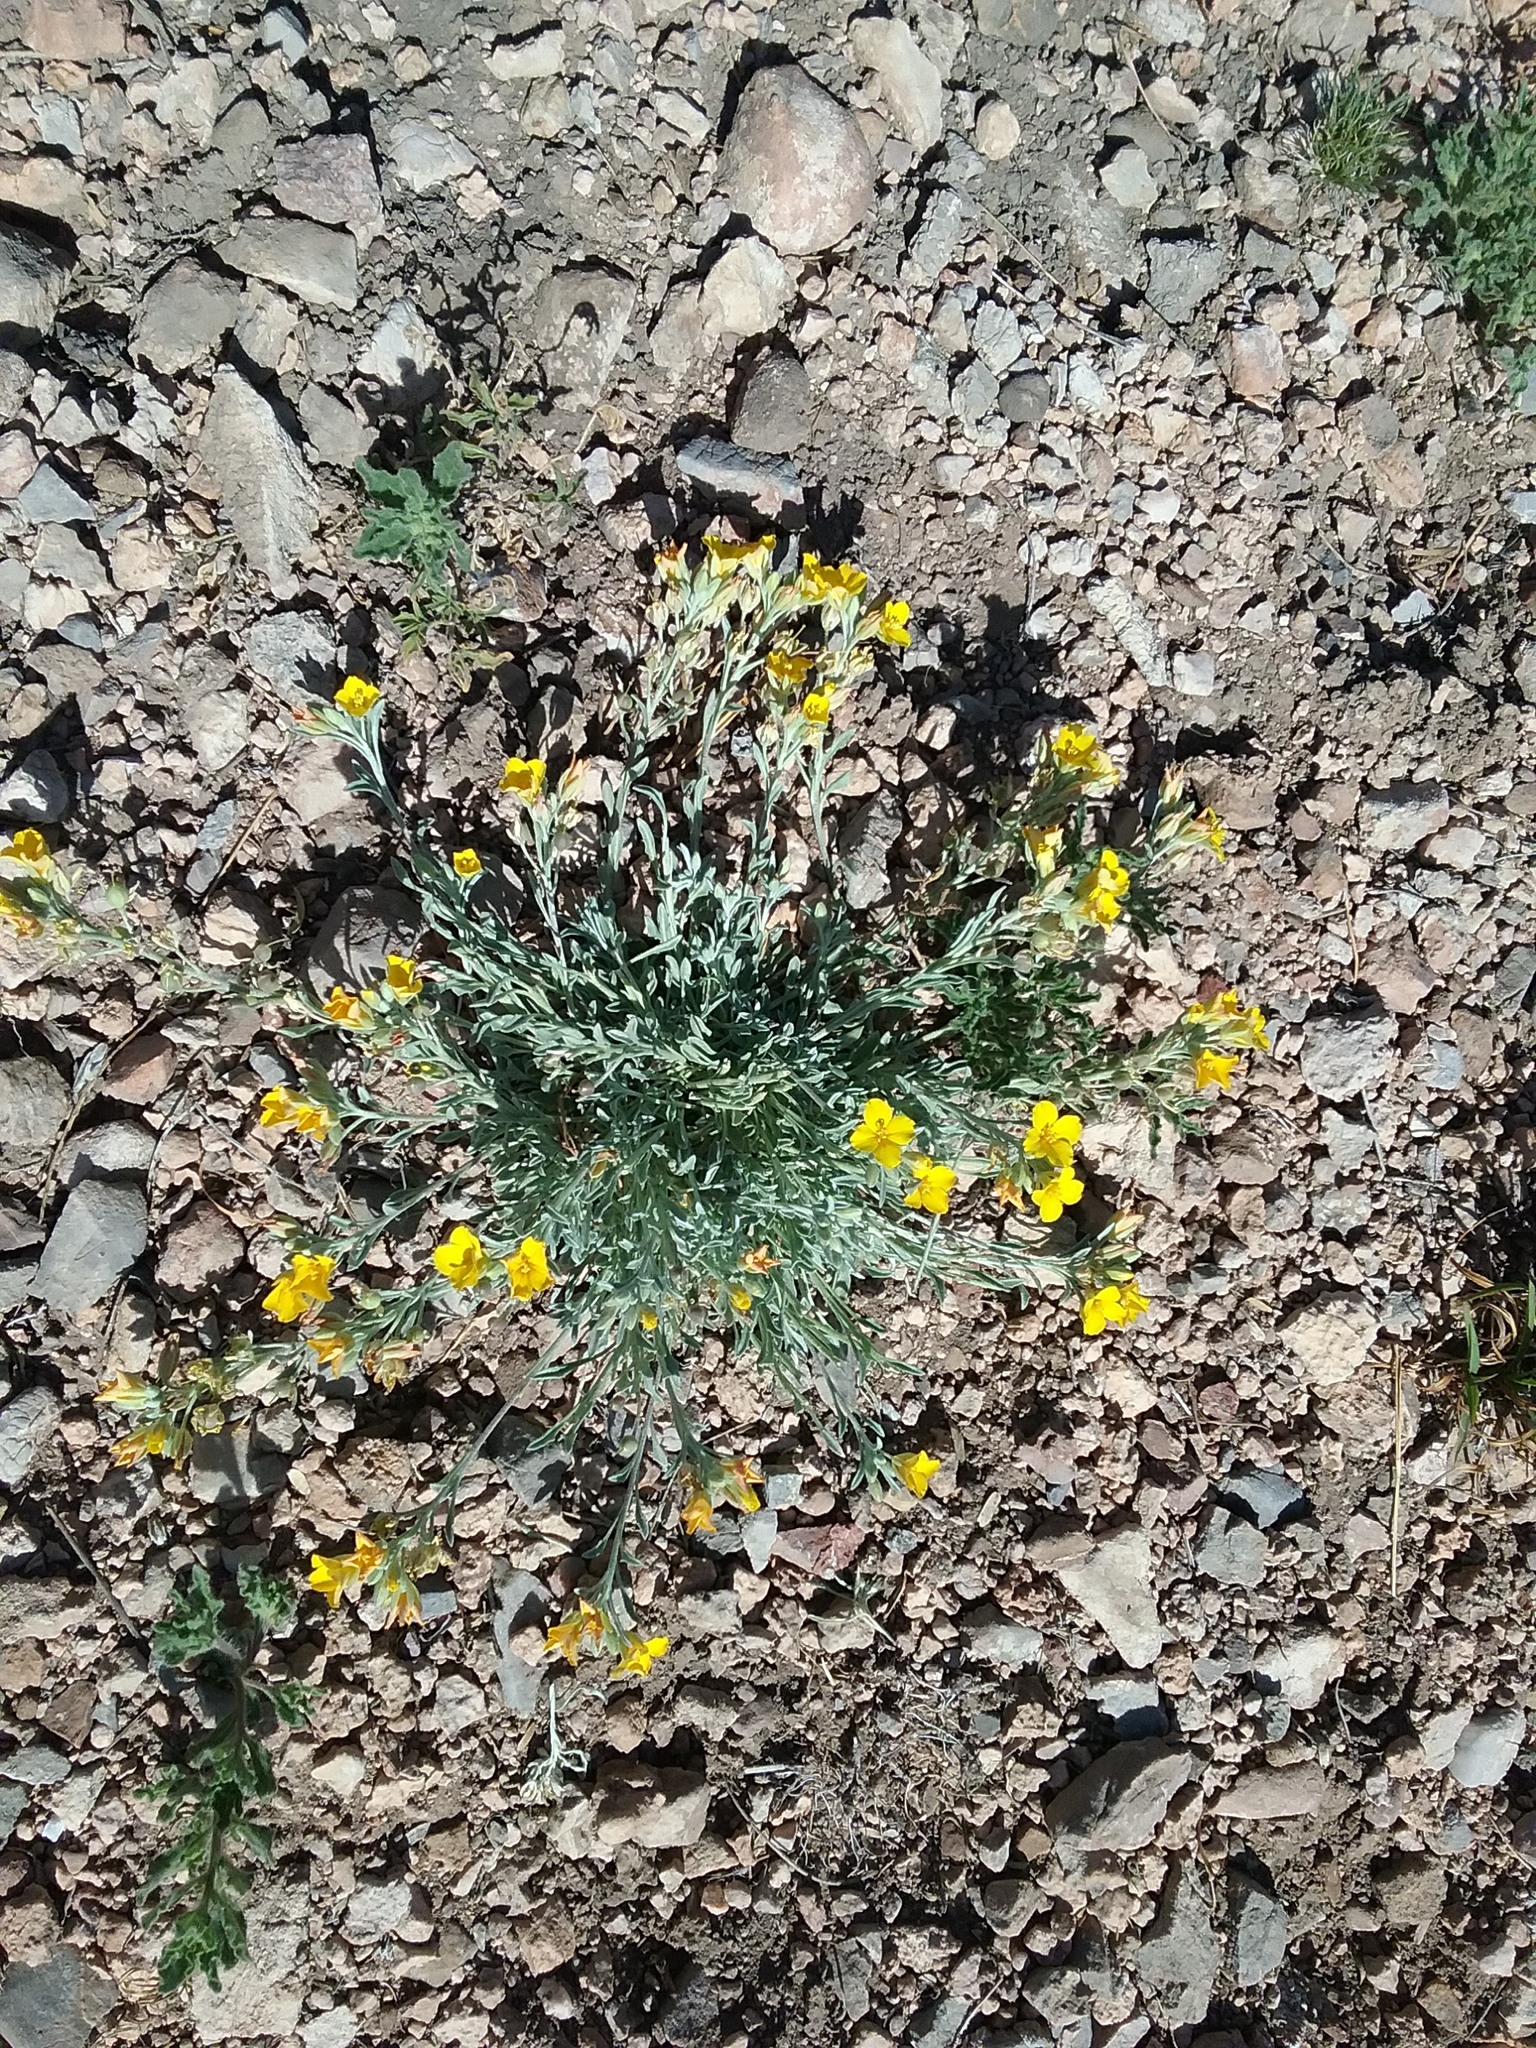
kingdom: Plantae
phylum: Tracheophyta
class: Magnoliopsida
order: Asterales
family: Asteraceae
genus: Psilostrophe
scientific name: Psilostrophe cooperi
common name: White-stem paper-flower
